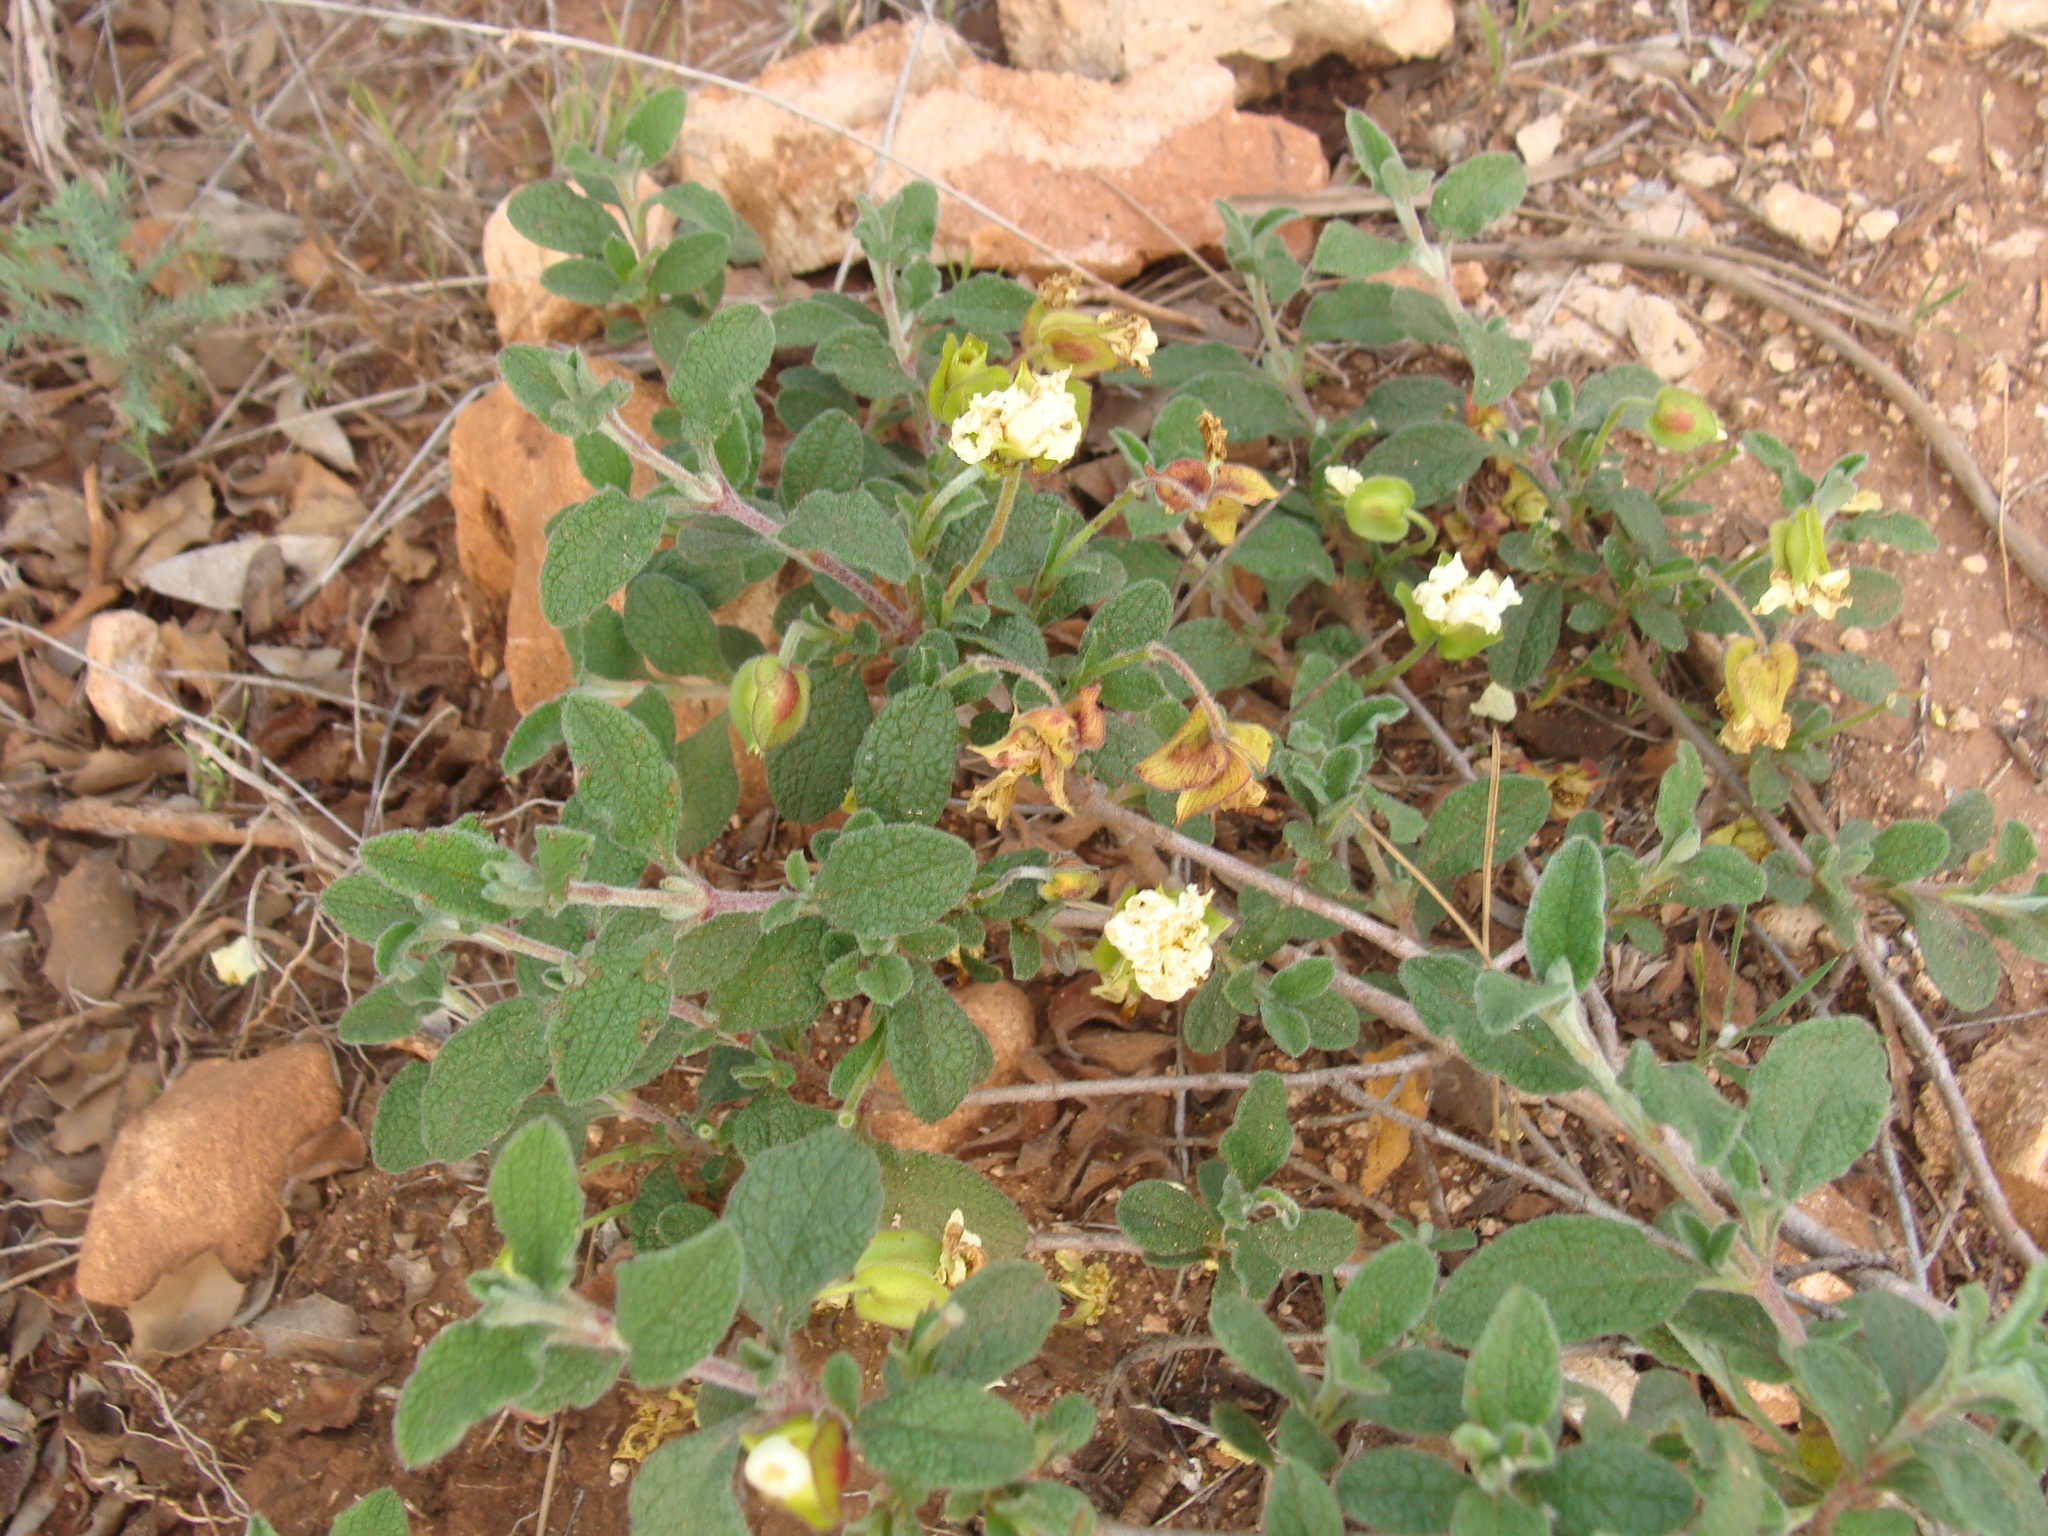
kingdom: Plantae
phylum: Tracheophyta
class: Magnoliopsida
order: Malvales
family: Cistaceae
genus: Cistus
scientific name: Cistus salviifolius
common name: Salvia cistus
